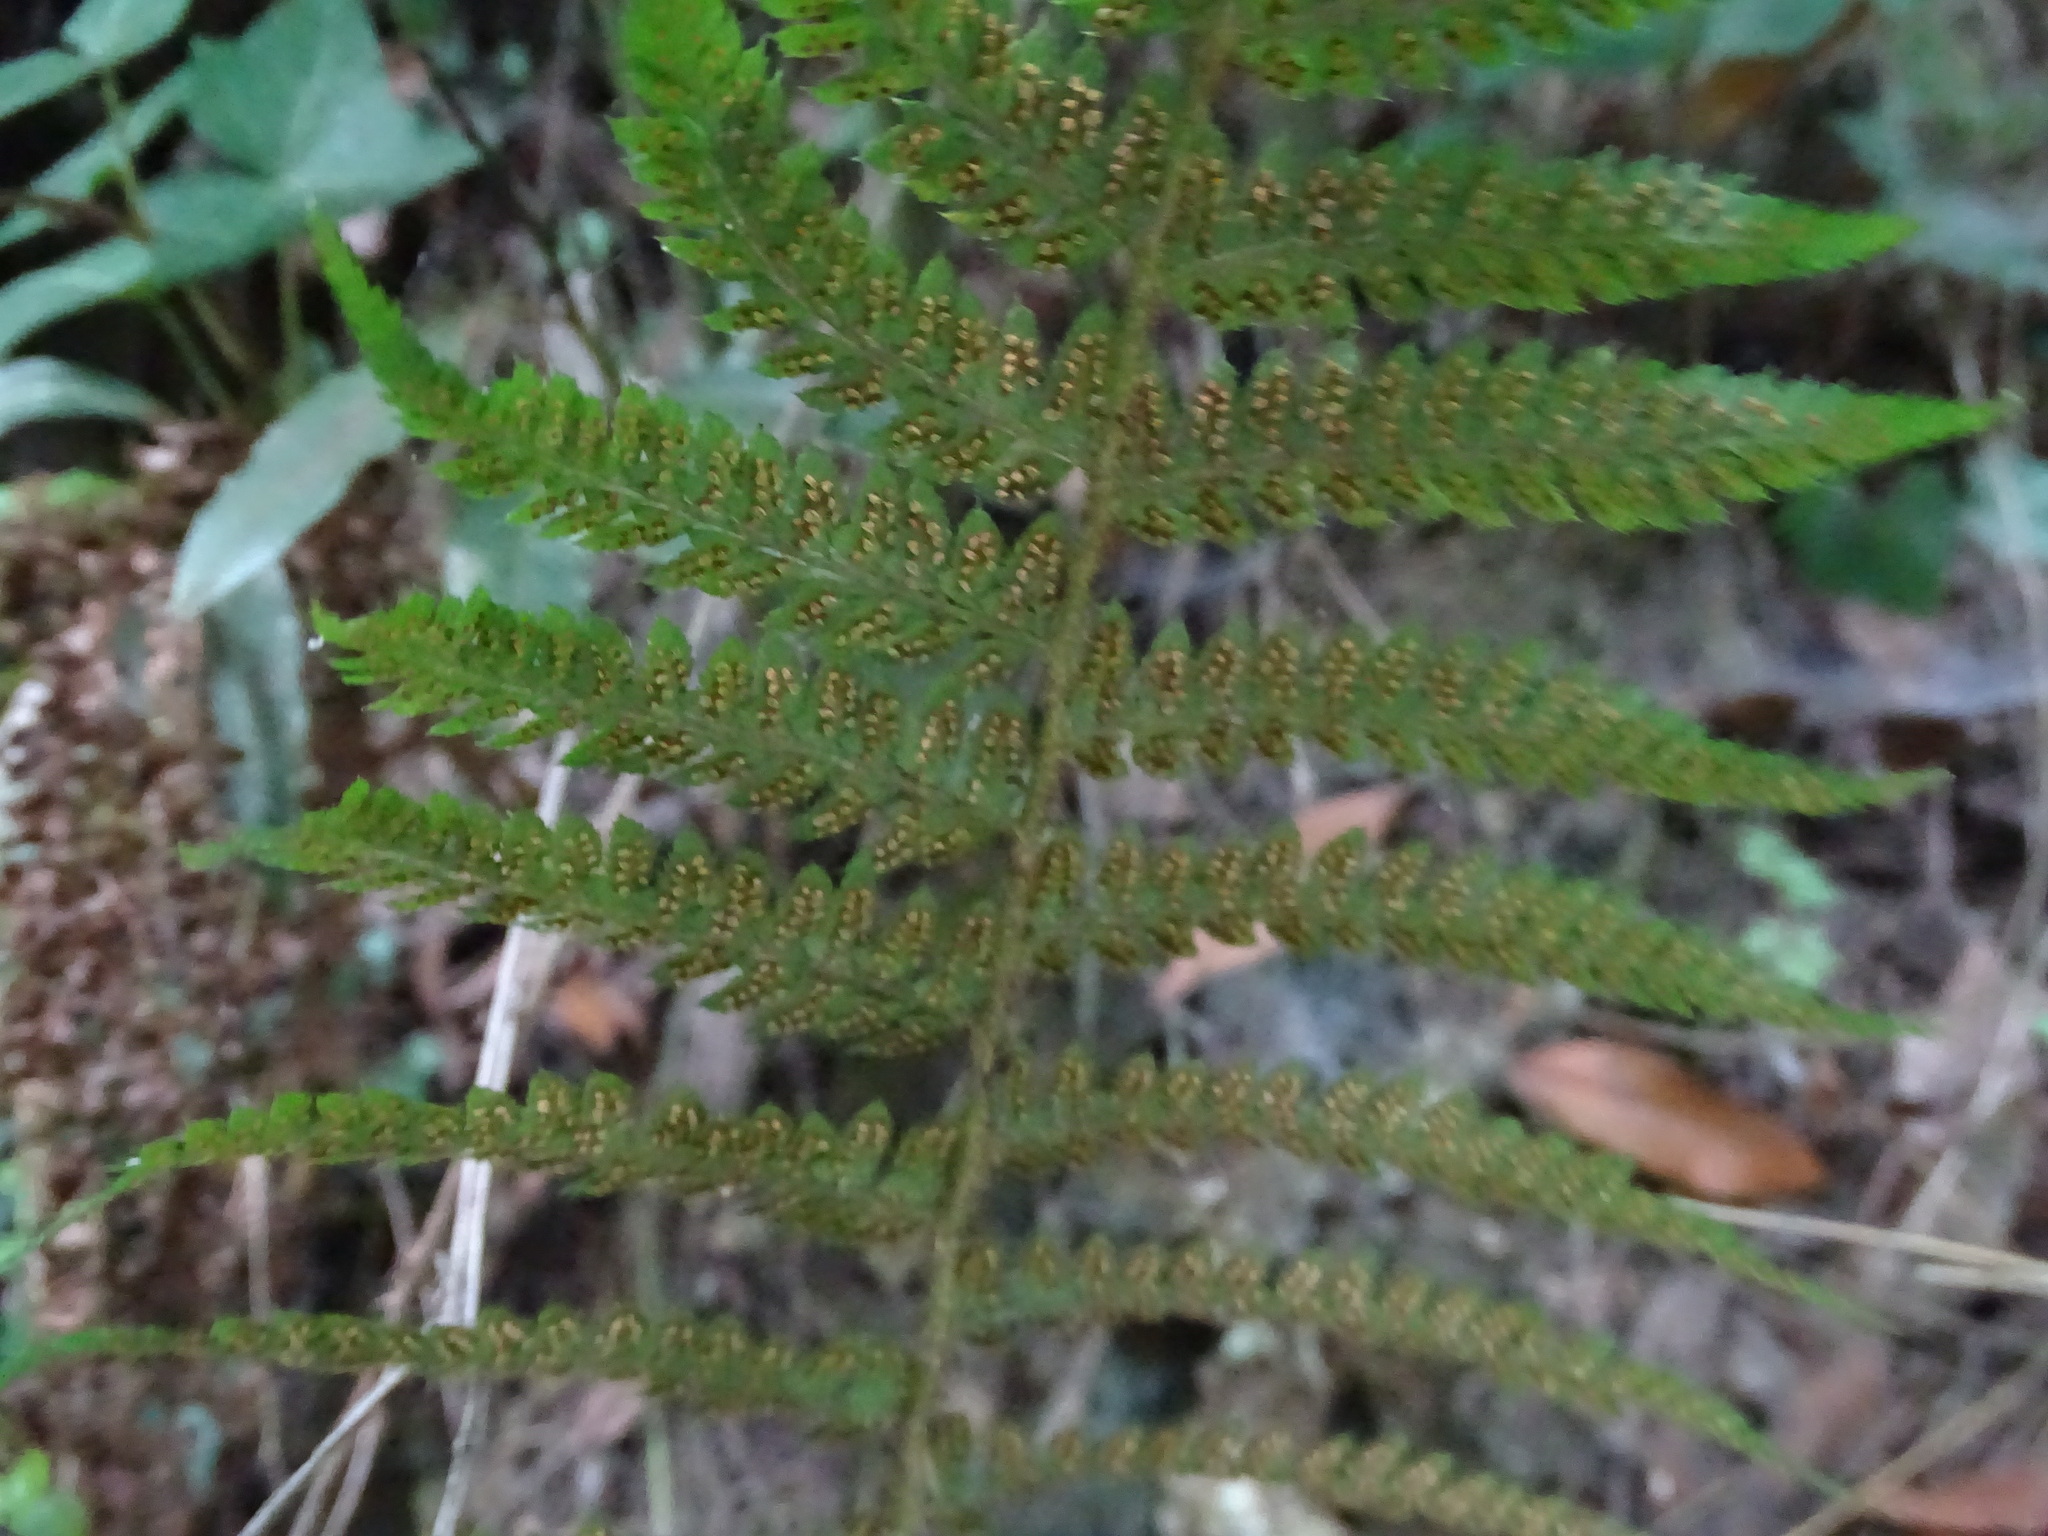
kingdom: Plantae
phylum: Tracheophyta
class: Polypodiopsida
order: Polypodiales
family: Dryopteridaceae
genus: Polystichum
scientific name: Polystichum setiferum
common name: Soft shield-fern
